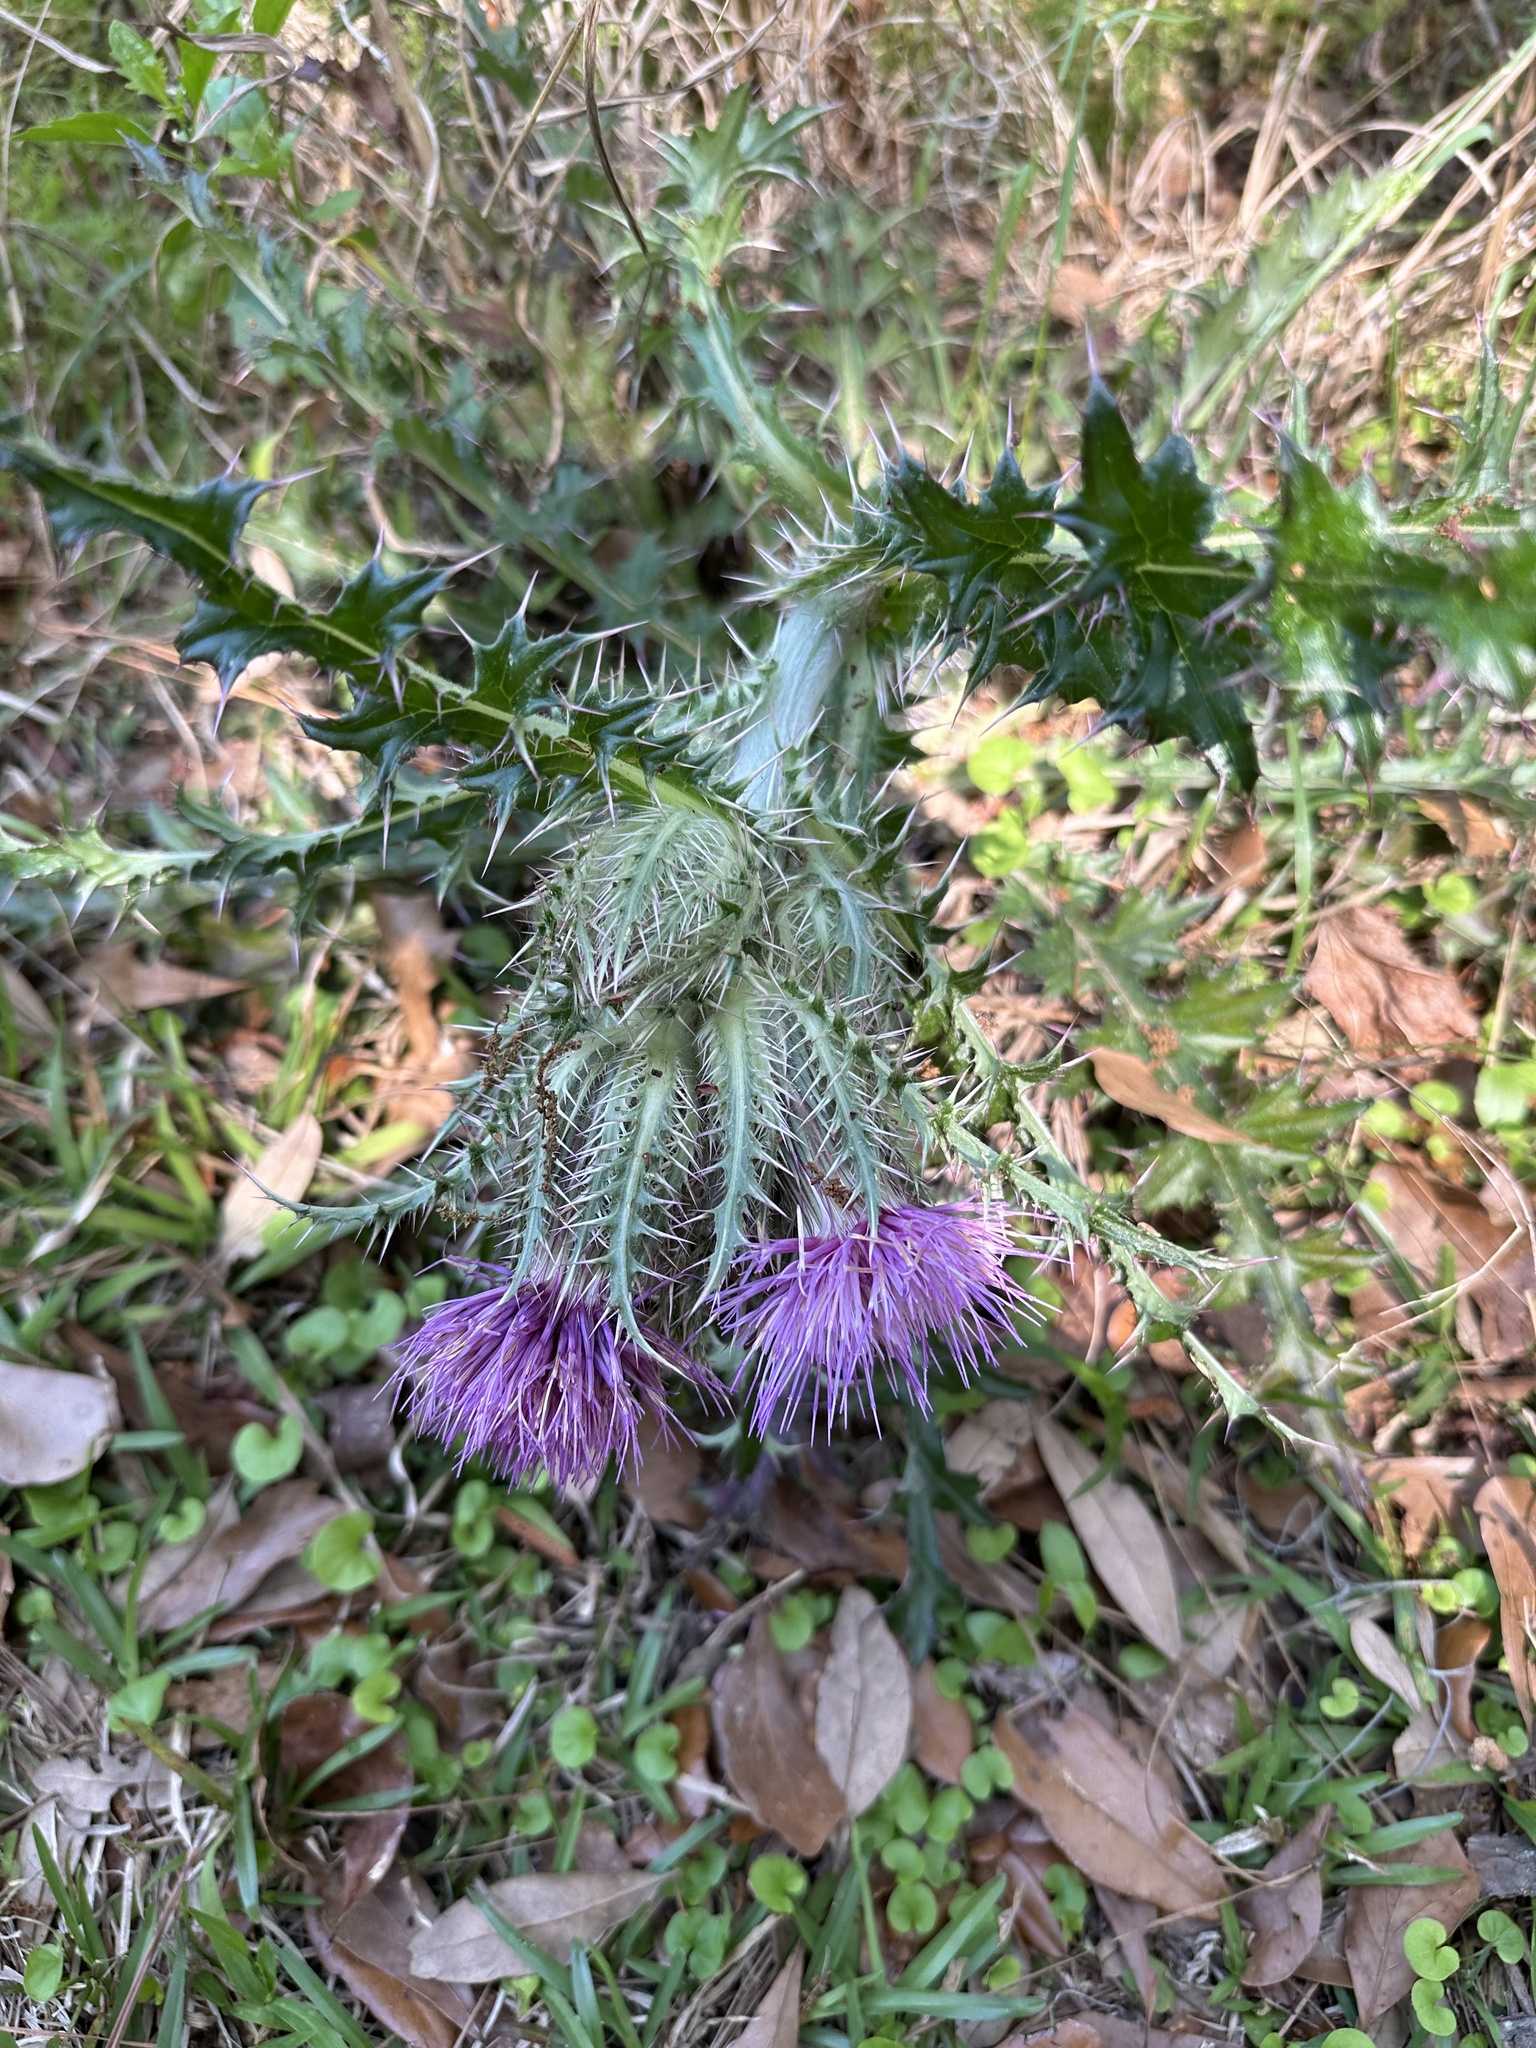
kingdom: Plantae
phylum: Tracheophyta
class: Magnoliopsida
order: Asterales
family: Asteraceae
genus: Cirsium
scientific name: Cirsium horridulum
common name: Bristly thistle
